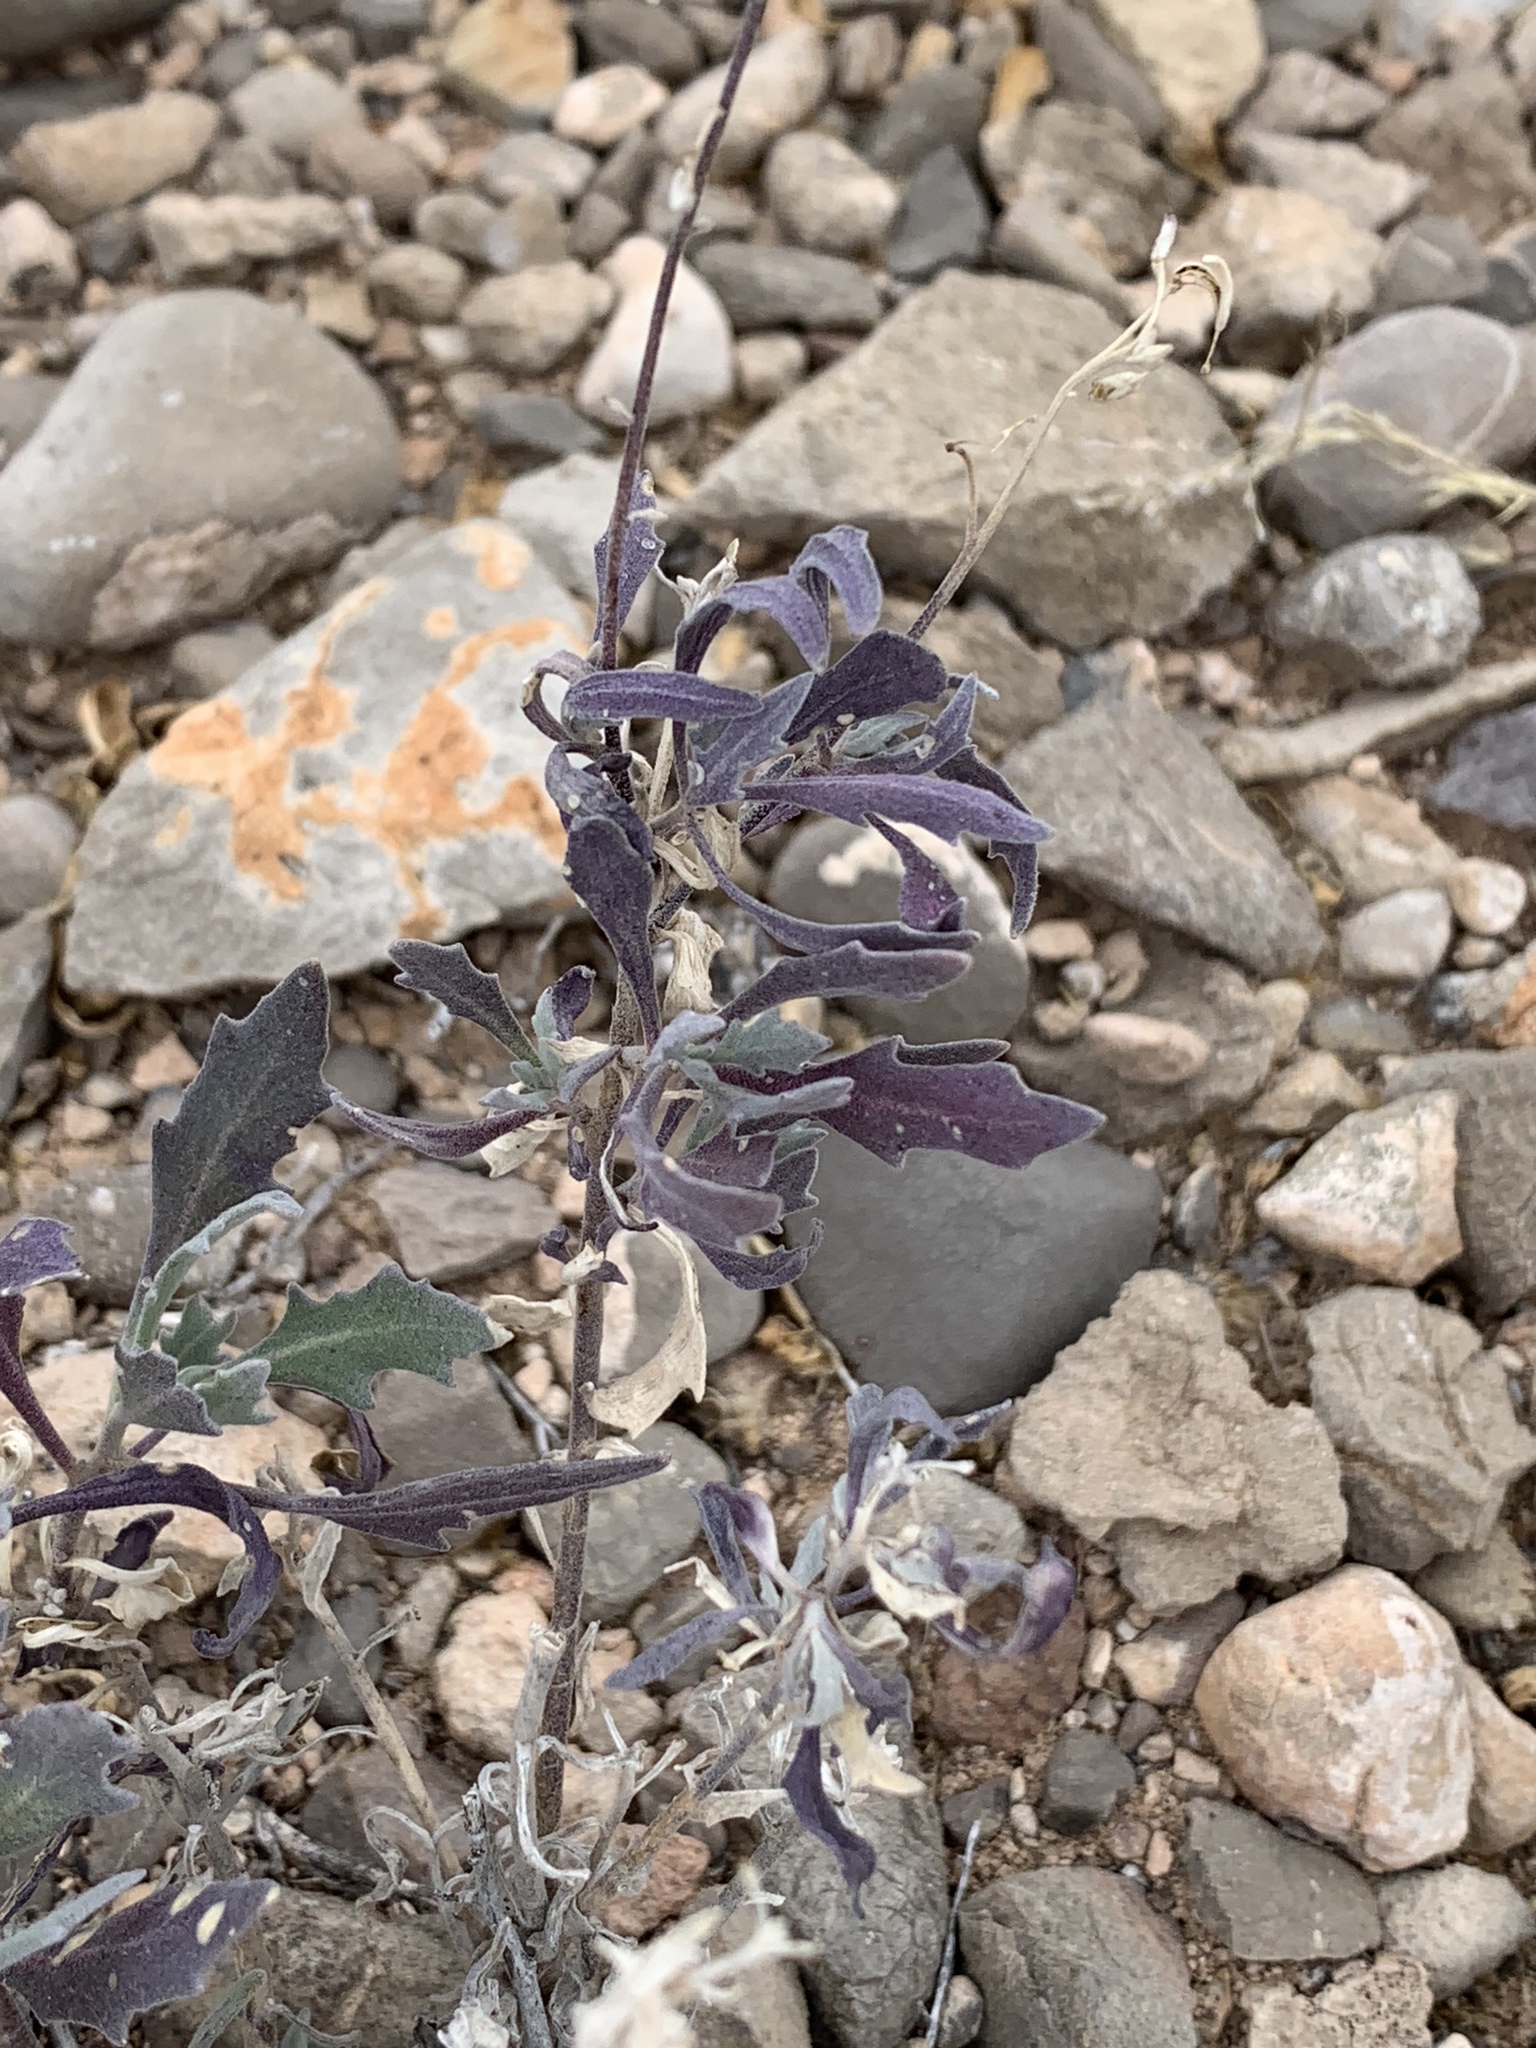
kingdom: Plantae
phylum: Tracheophyta
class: Magnoliopsida
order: Brassicales
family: Brassicaceae
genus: Nerisyrenia
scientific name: Nerisyrenia camporum
